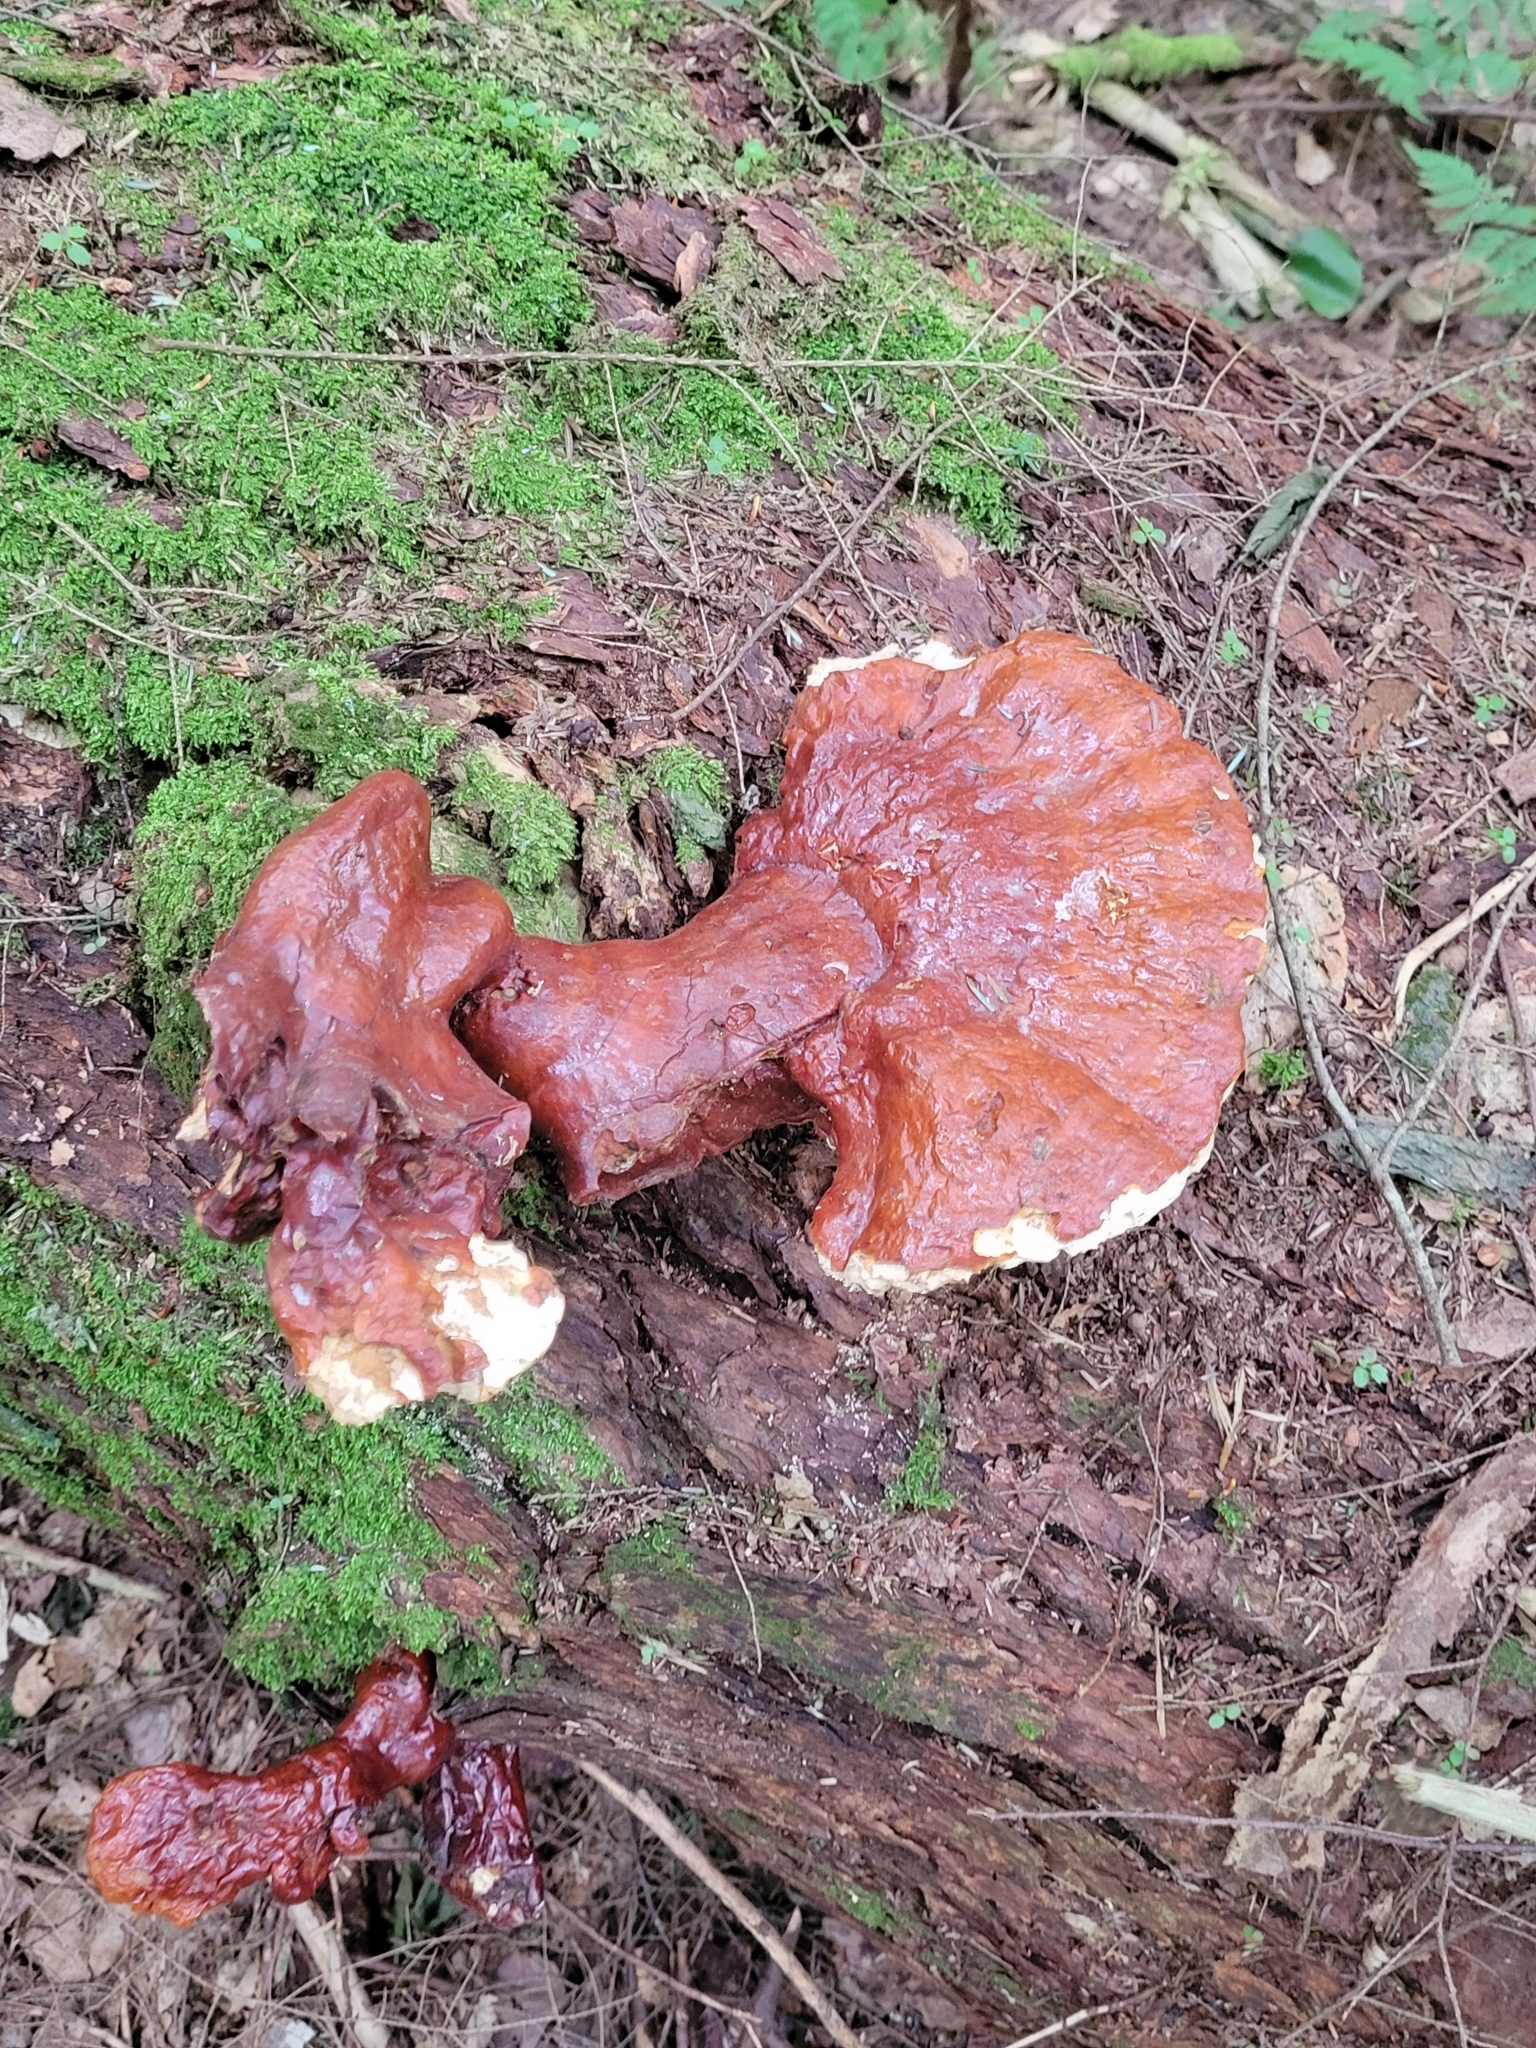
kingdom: Fungi
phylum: Basidiomycota
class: Agaricomycetes
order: Polyporales
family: Polyporaceae
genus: Ganoderma
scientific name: Ganoderma tsugae
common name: Hemlock varnish shelf
